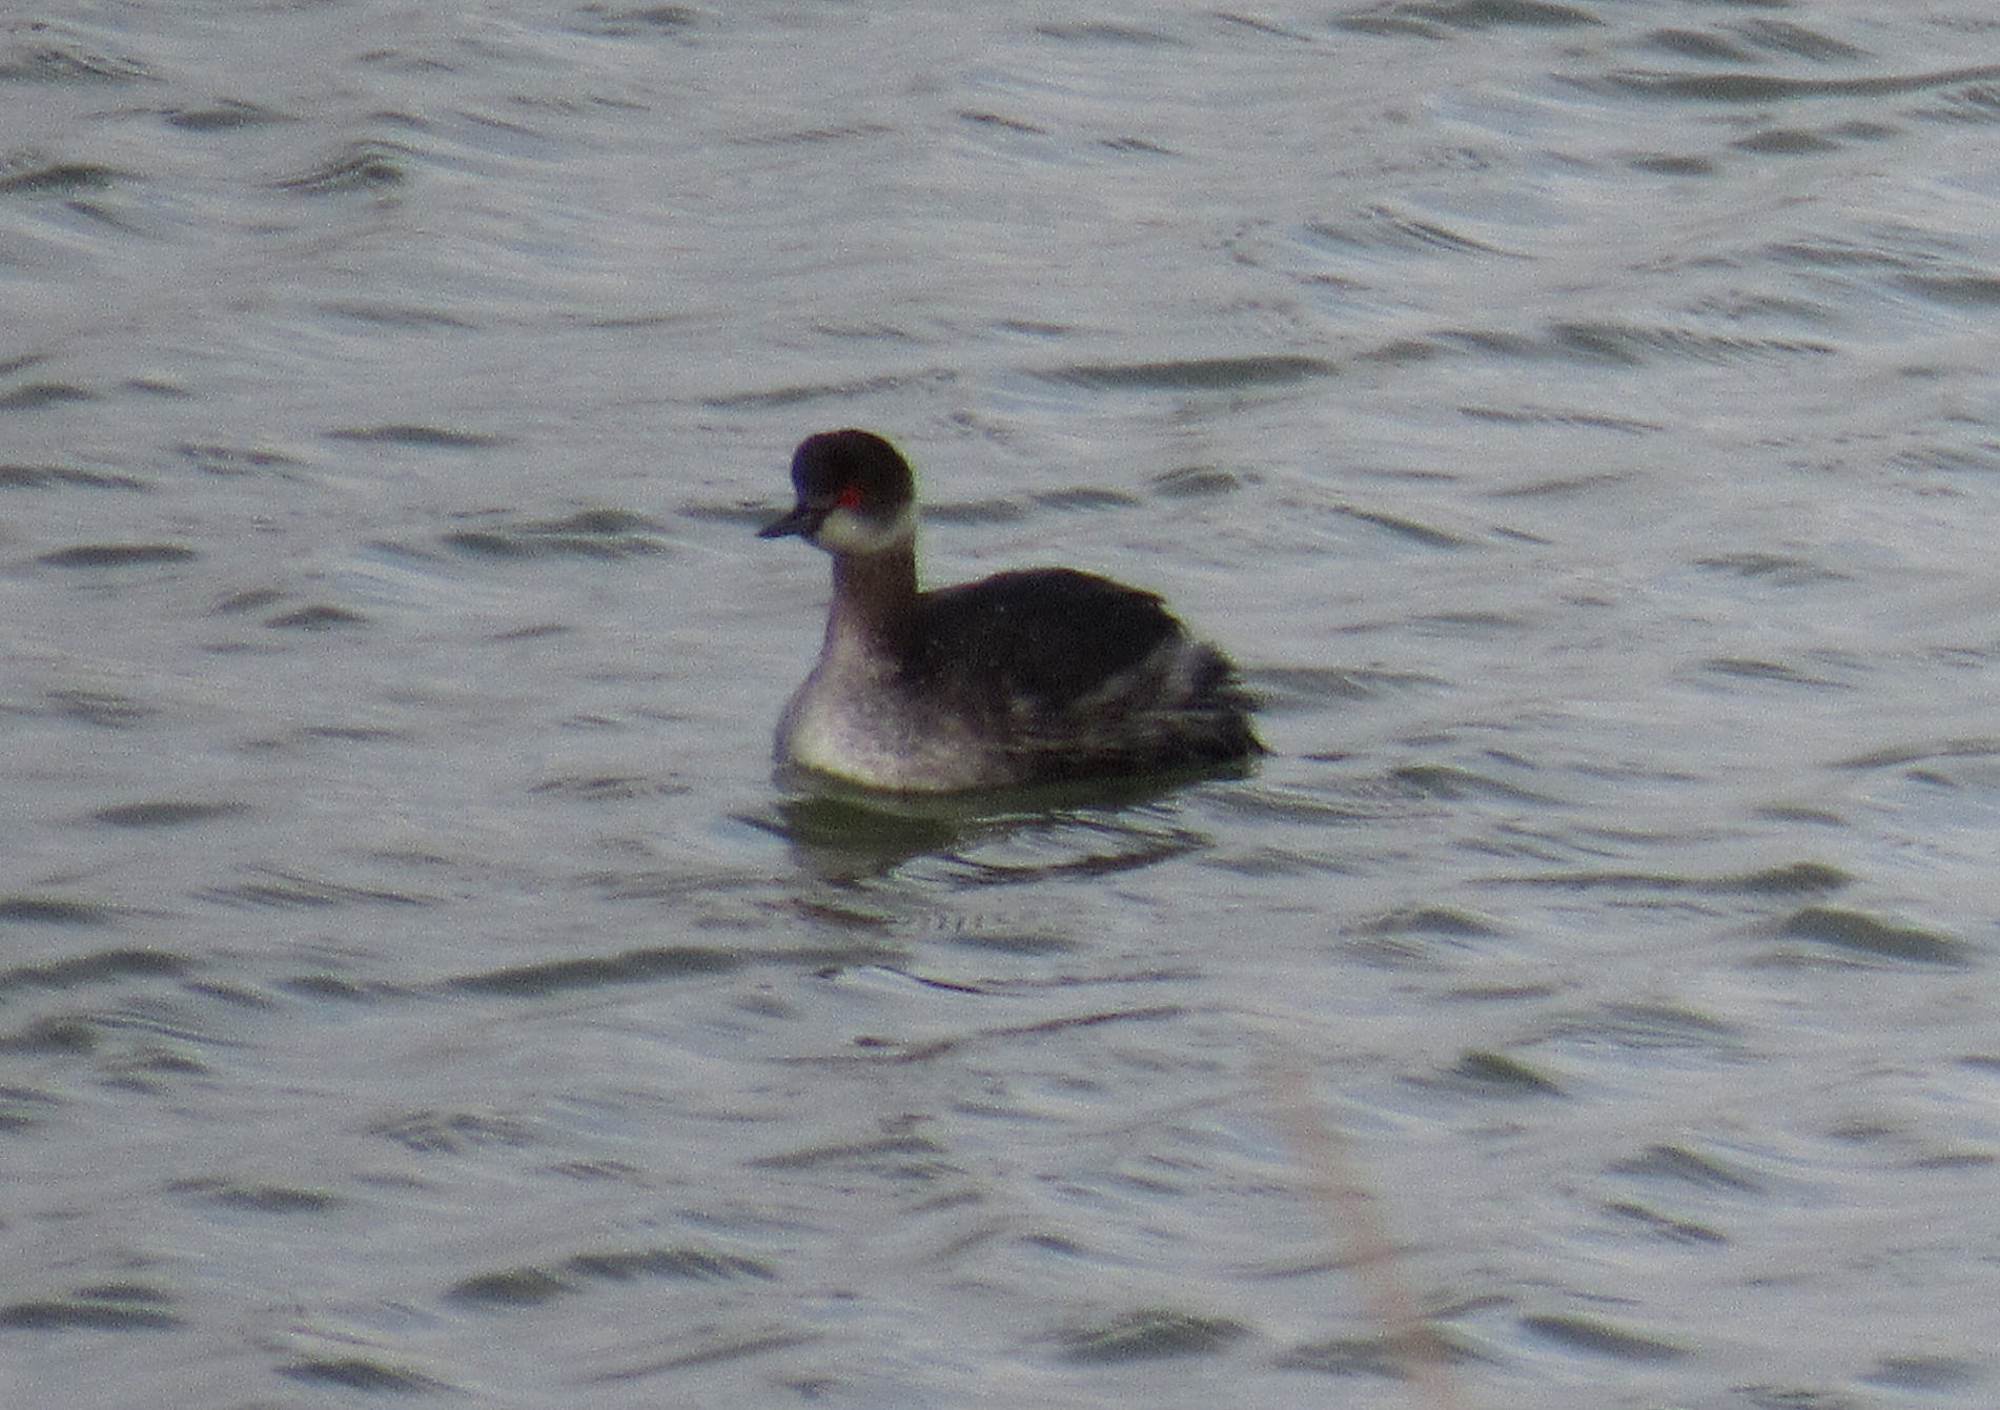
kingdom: Animalia
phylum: Chordata
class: Aves
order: Podicipediformes
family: Podicipedidae
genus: Podiceps
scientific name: Podiceps nigricollis
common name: Black-necked grebe
